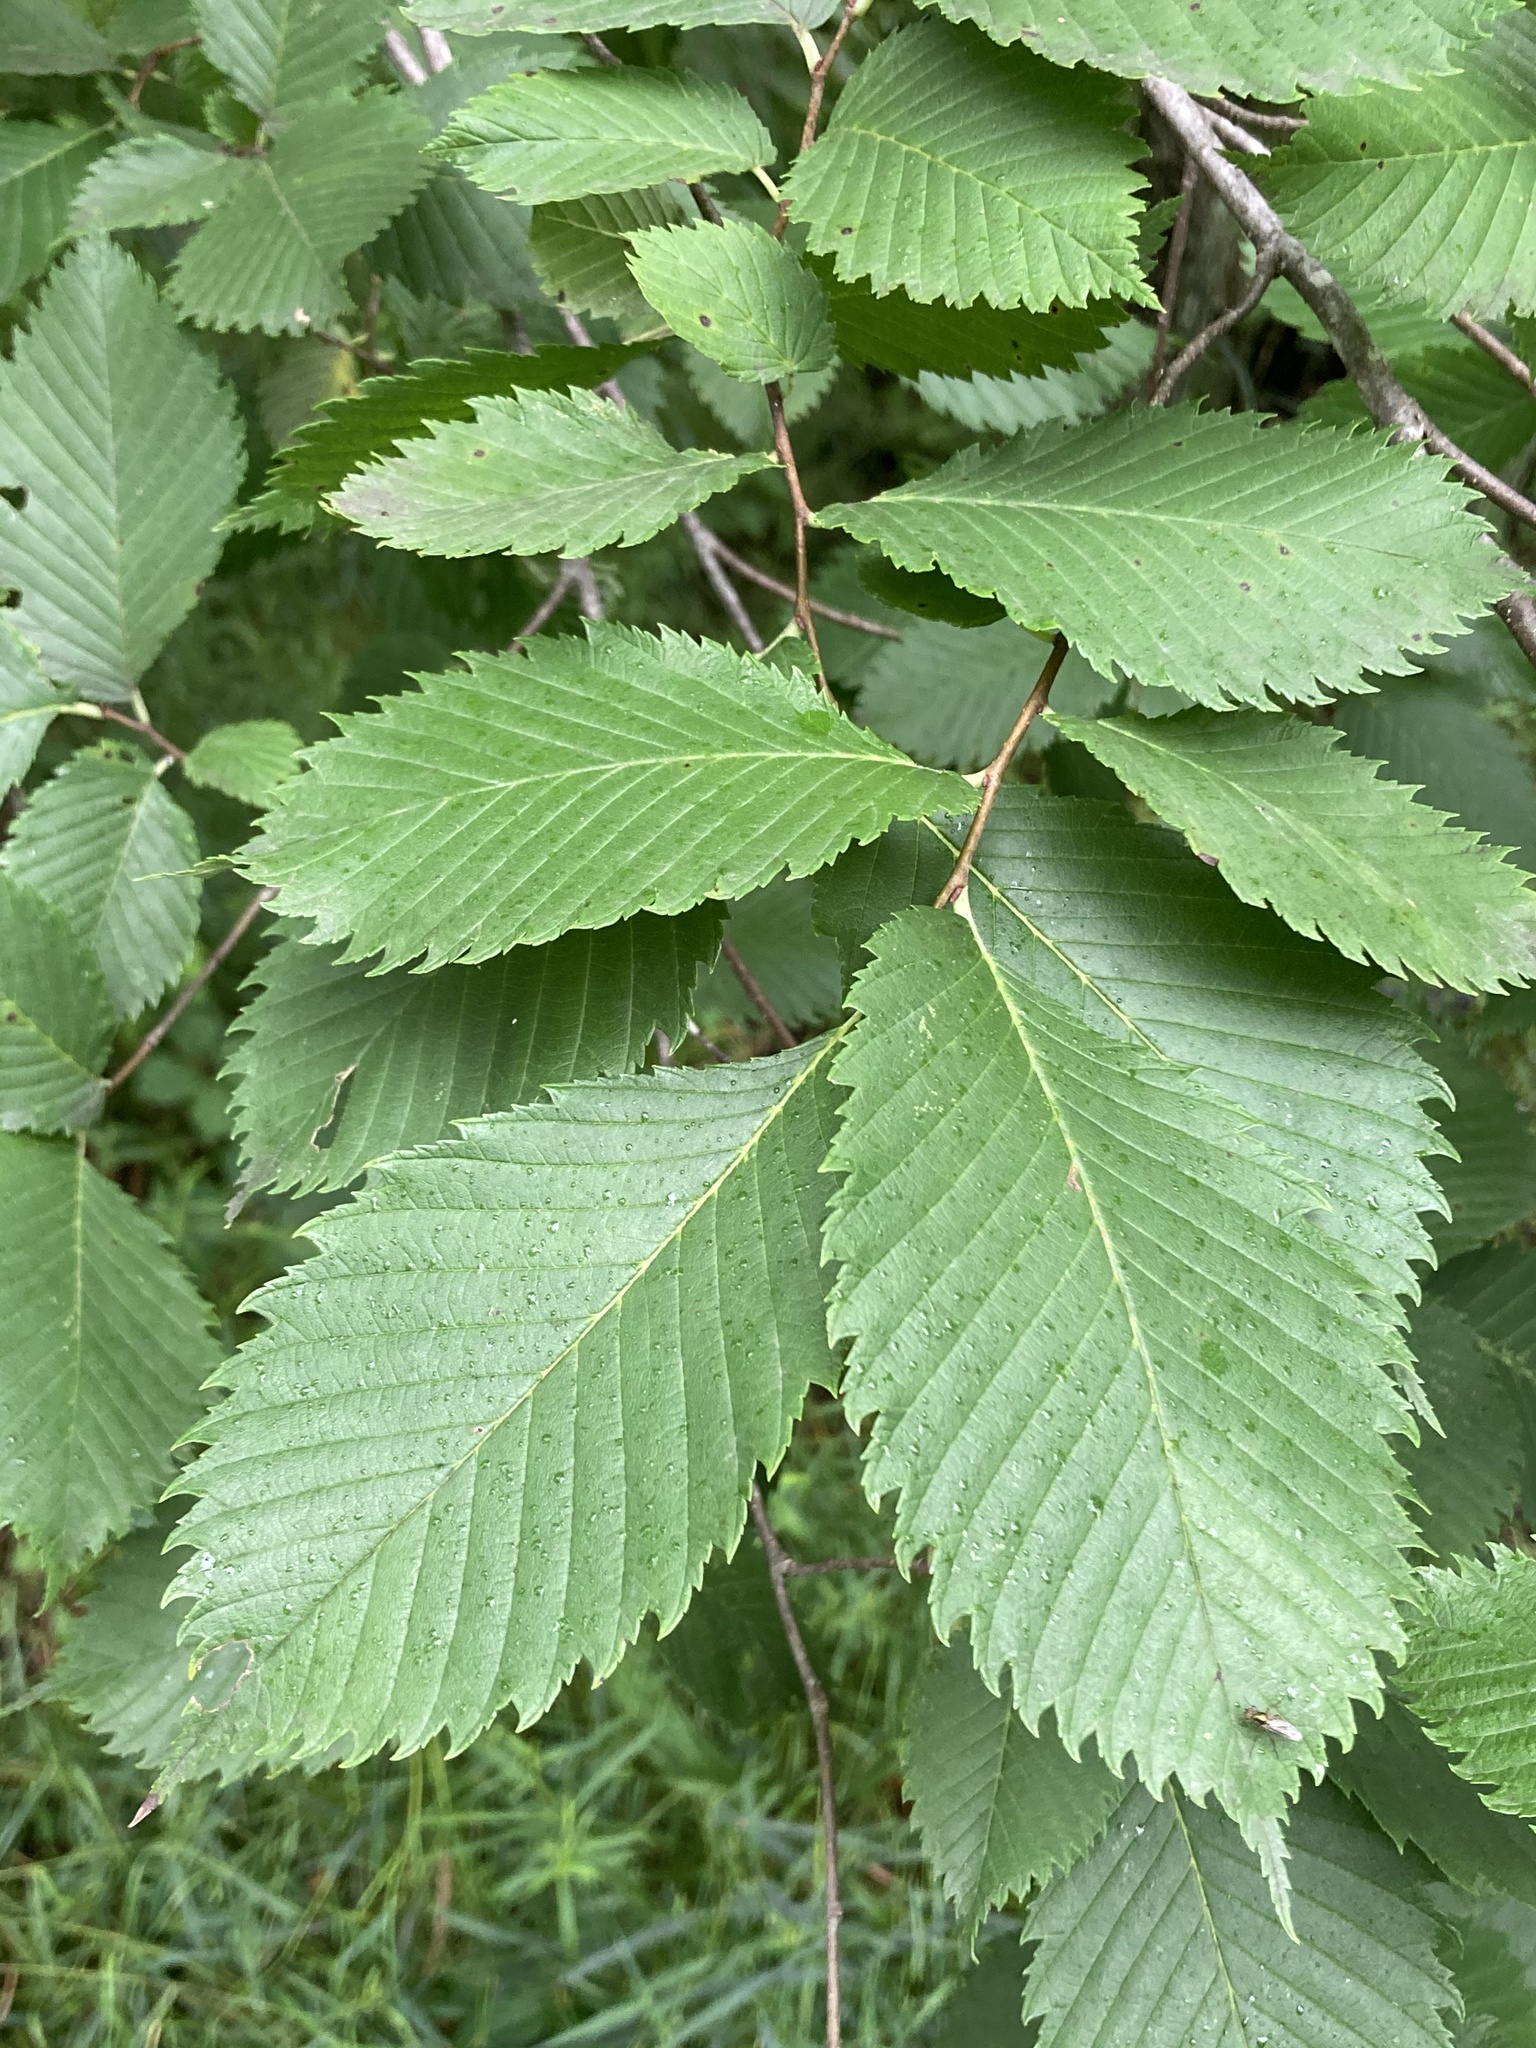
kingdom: Plantae
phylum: Tracheophyta
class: Magnoliopsida
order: Rosales
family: Ulmaceae
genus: Ulmus
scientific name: Ulmus americana
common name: American elm
